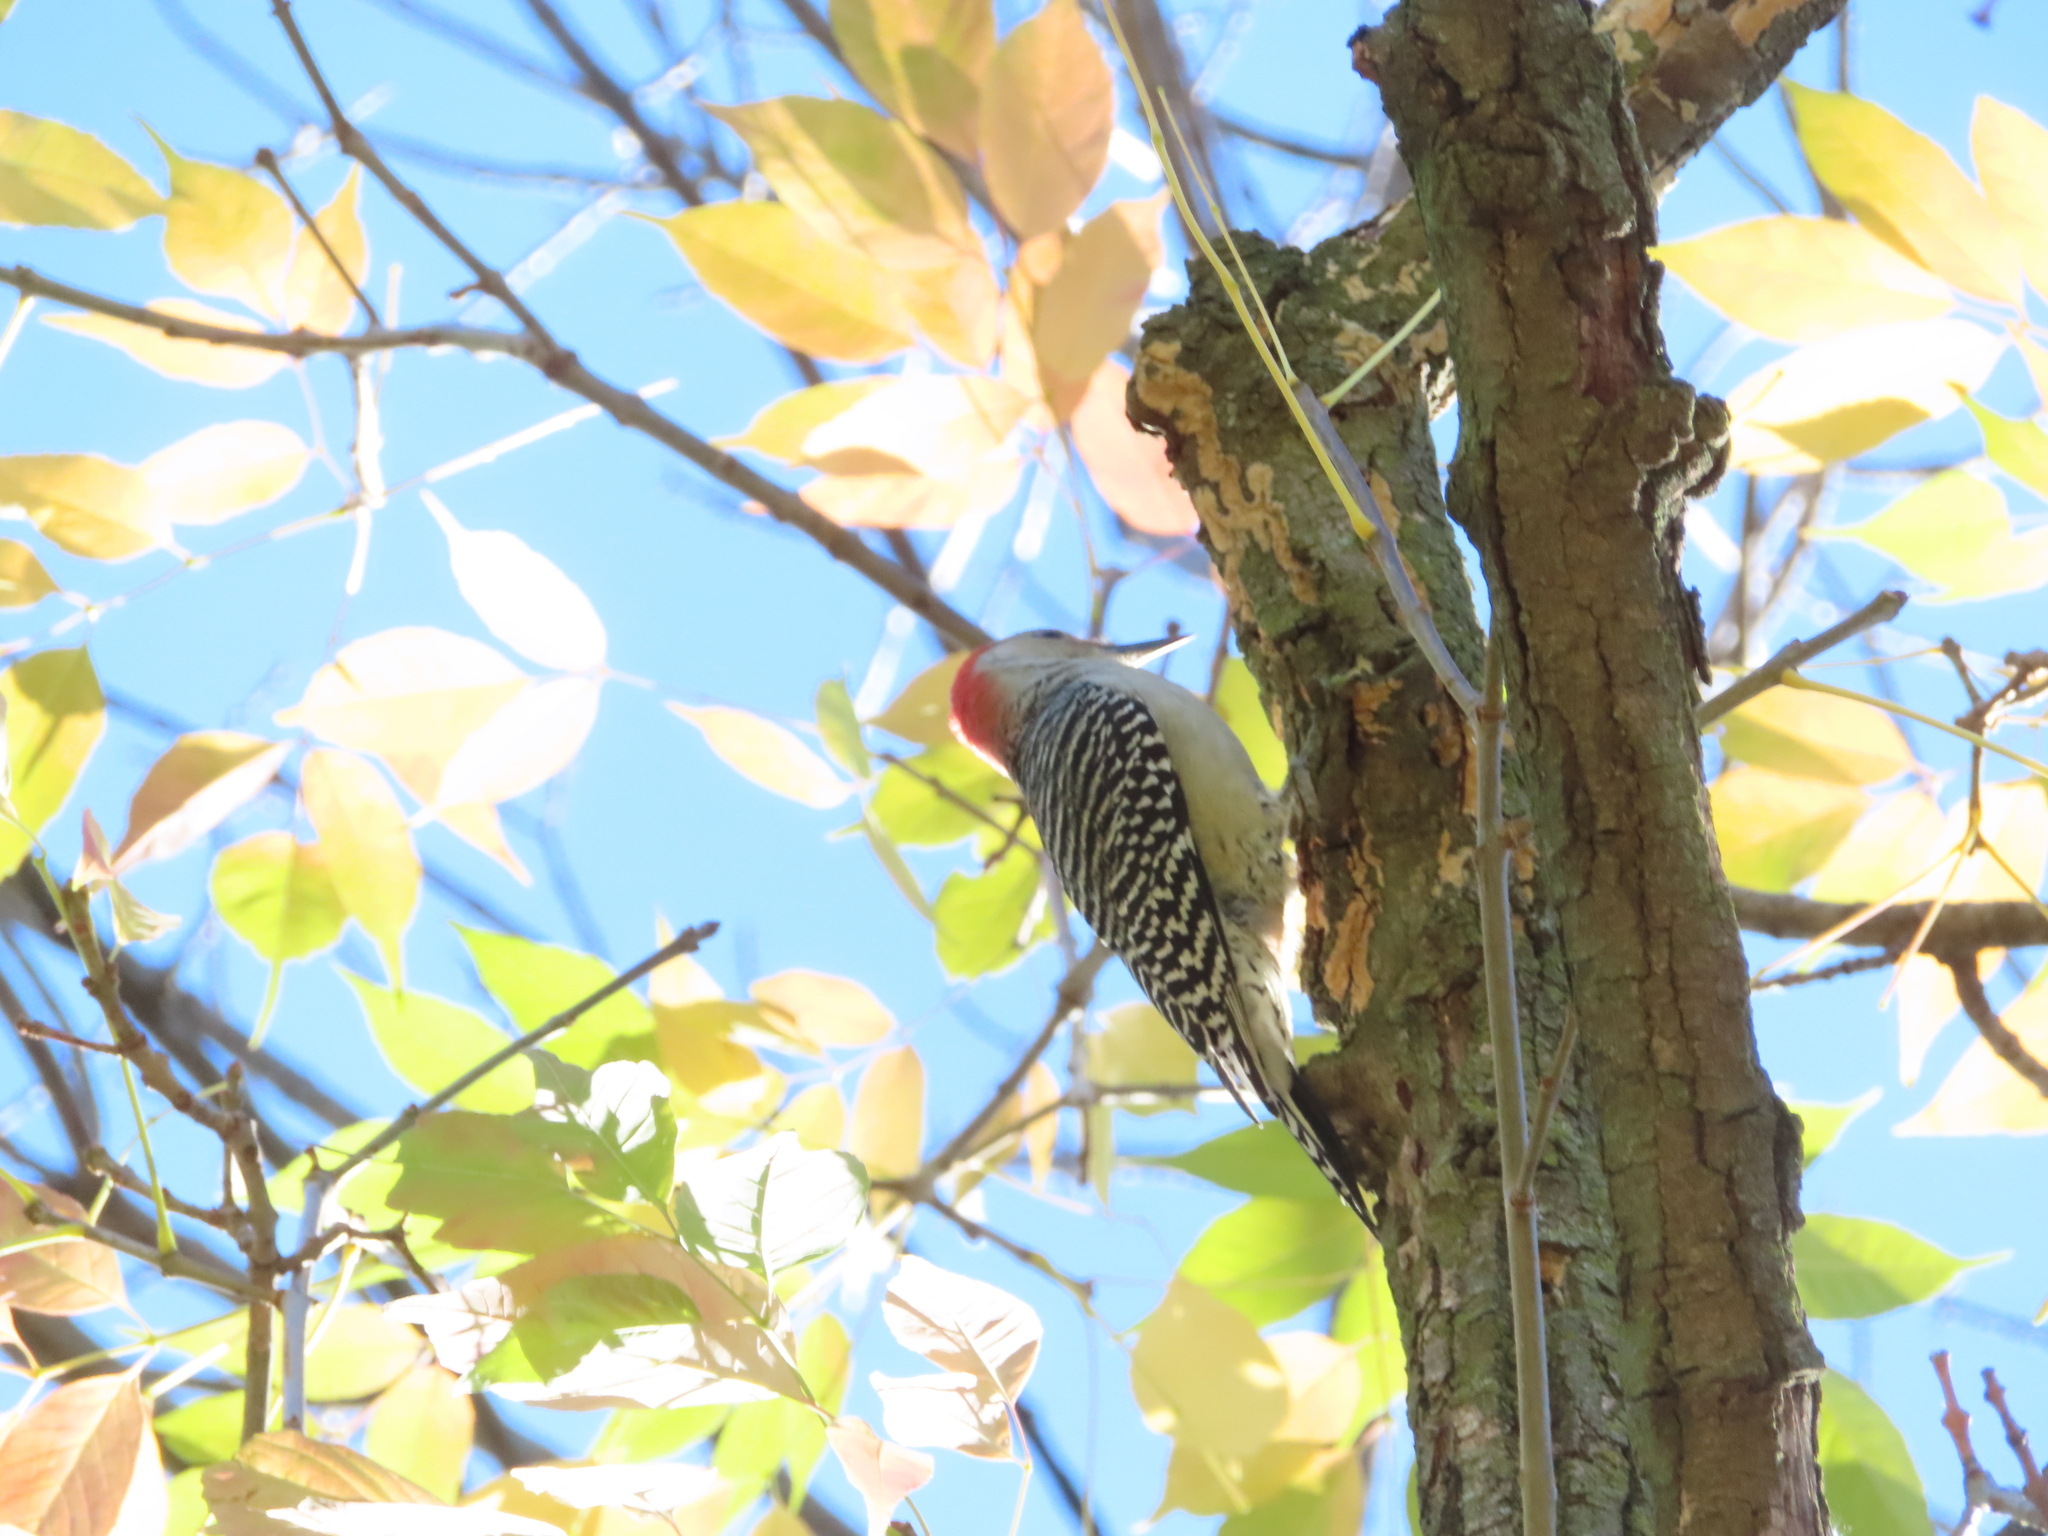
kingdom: Animalia
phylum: Chordata
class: Aves
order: Piciformes
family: Picidae
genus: Melanerpes
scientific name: Melanerpes carolinus
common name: Red-bellied woodpecker
